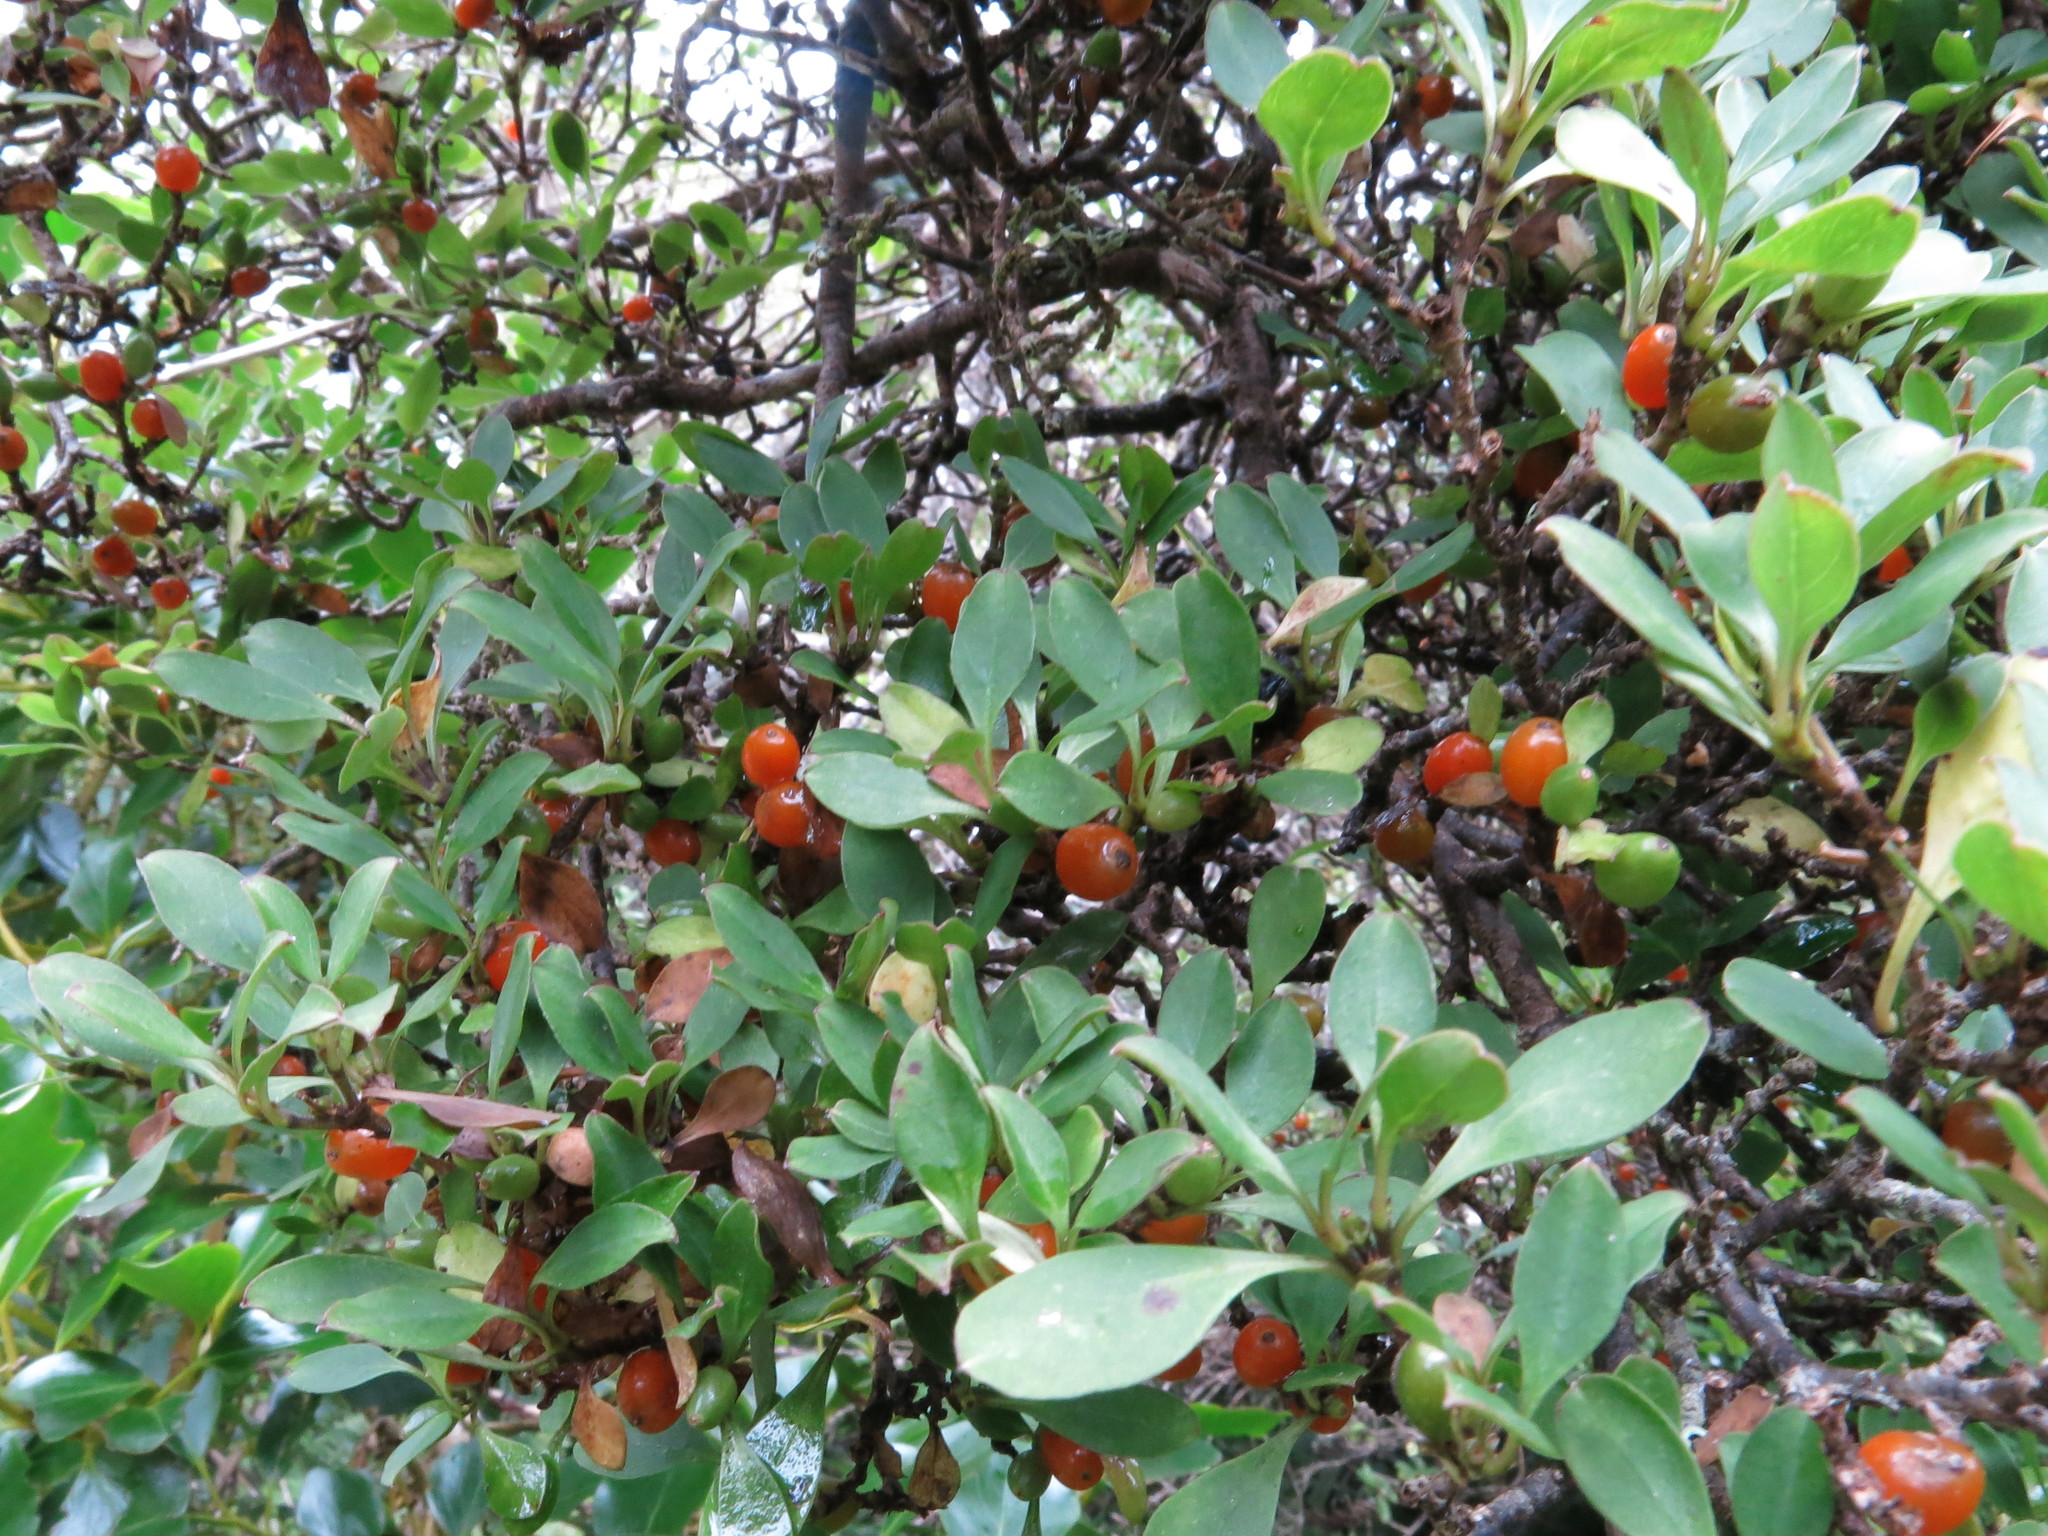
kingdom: Plantae
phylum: Tracheophyta
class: Magnoliopsida
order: Gentianales
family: Rubiaceae
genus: Coprosma
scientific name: Coprosma foetidissima
